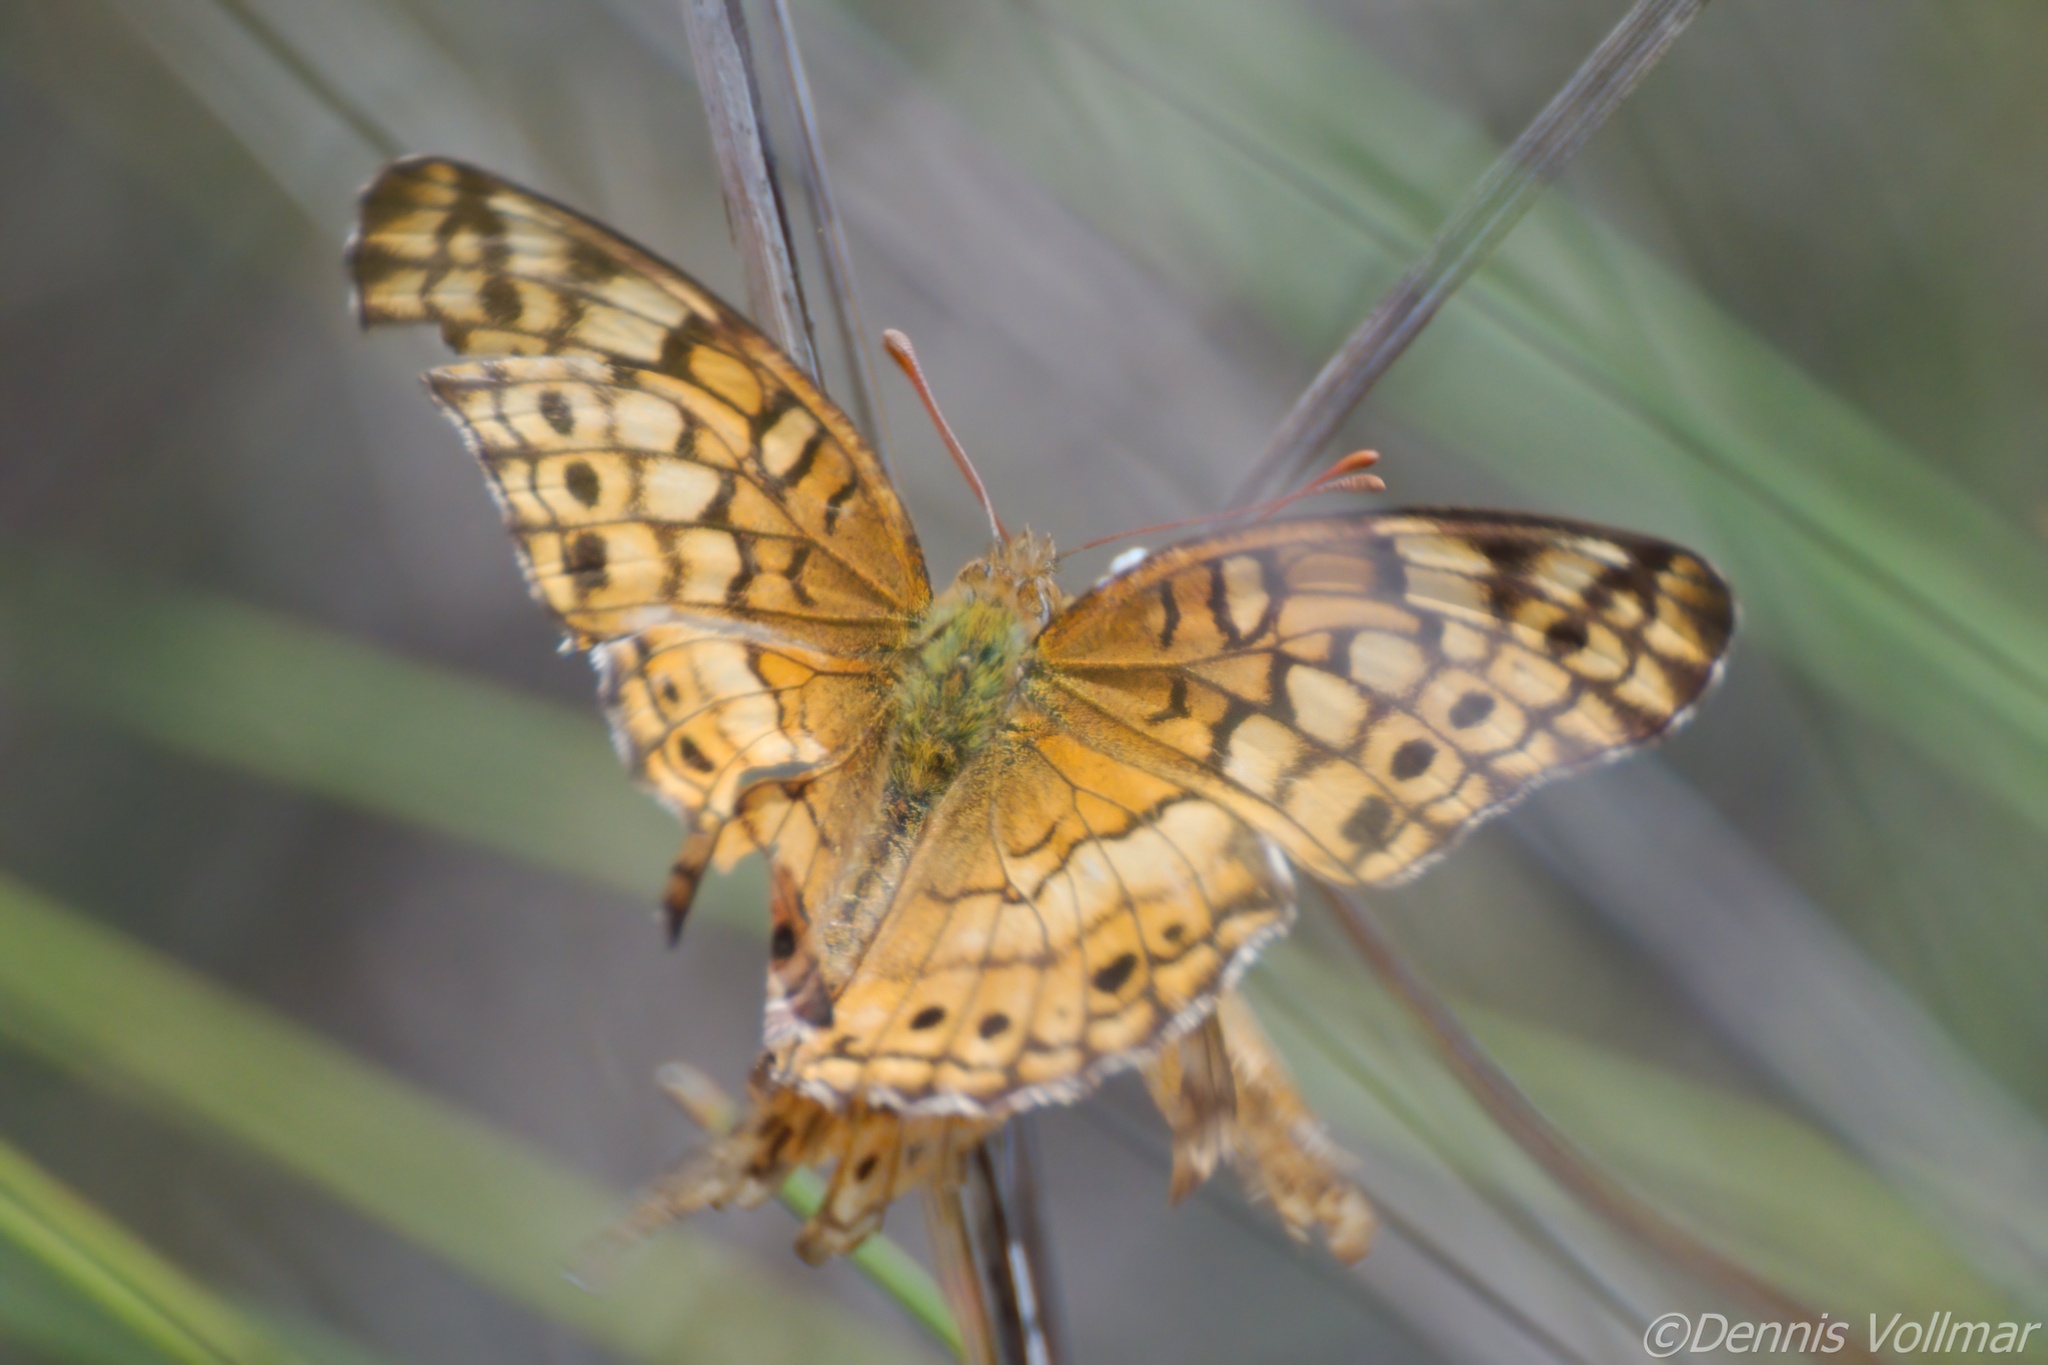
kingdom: Animalia
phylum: Arthropoda
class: Insecta
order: Lepidoptera
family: Nymphalidae
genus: Euptoieta
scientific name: Euptoieta claudia
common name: Variegated fritillary
